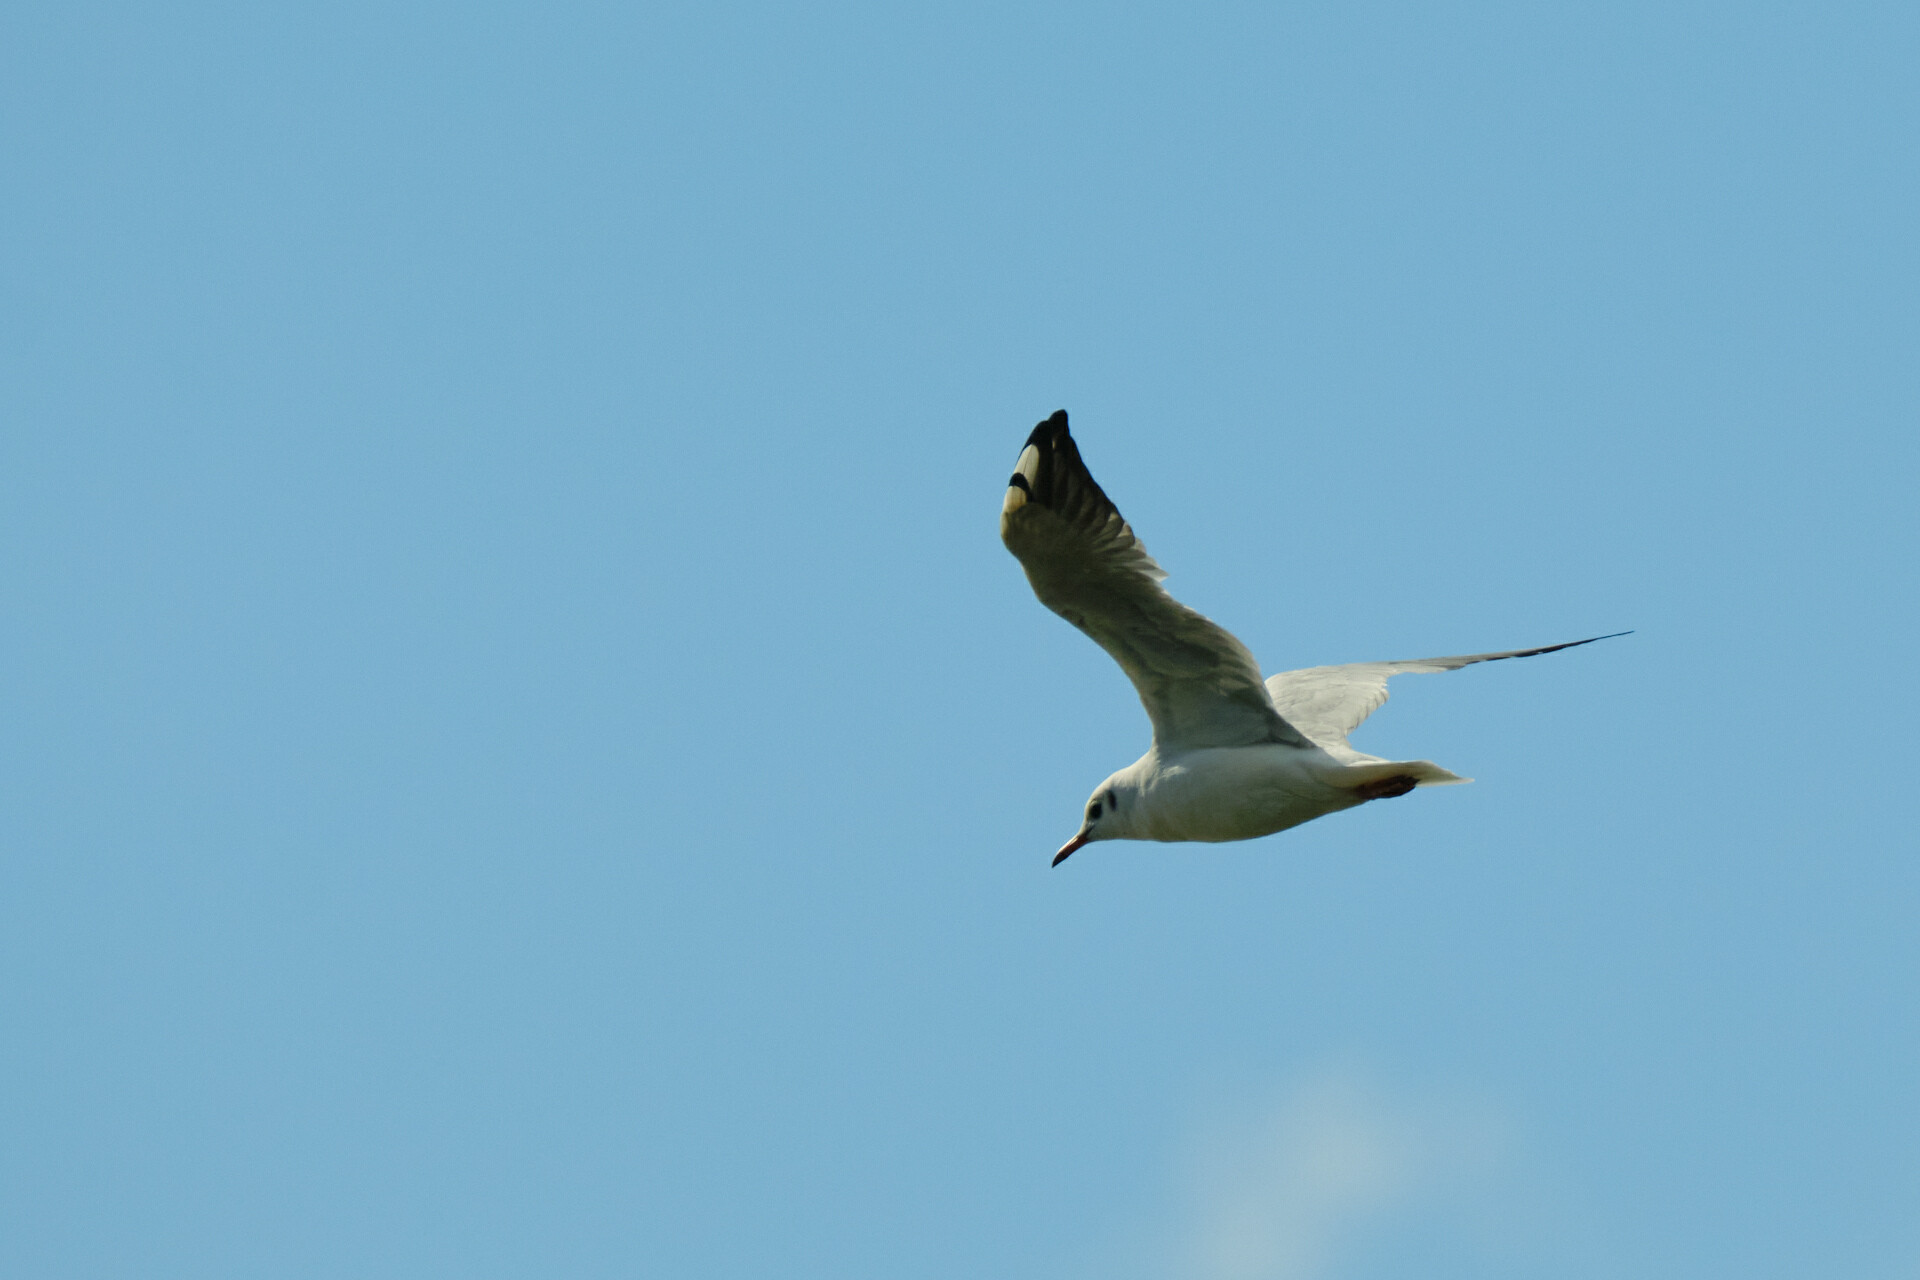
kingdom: Animalia
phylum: Chordata
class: Aves
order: Charadriiformes
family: Laridae
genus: Chroicocephalus
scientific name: Chroicocephalus ridibundus
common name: Black-headed gull
